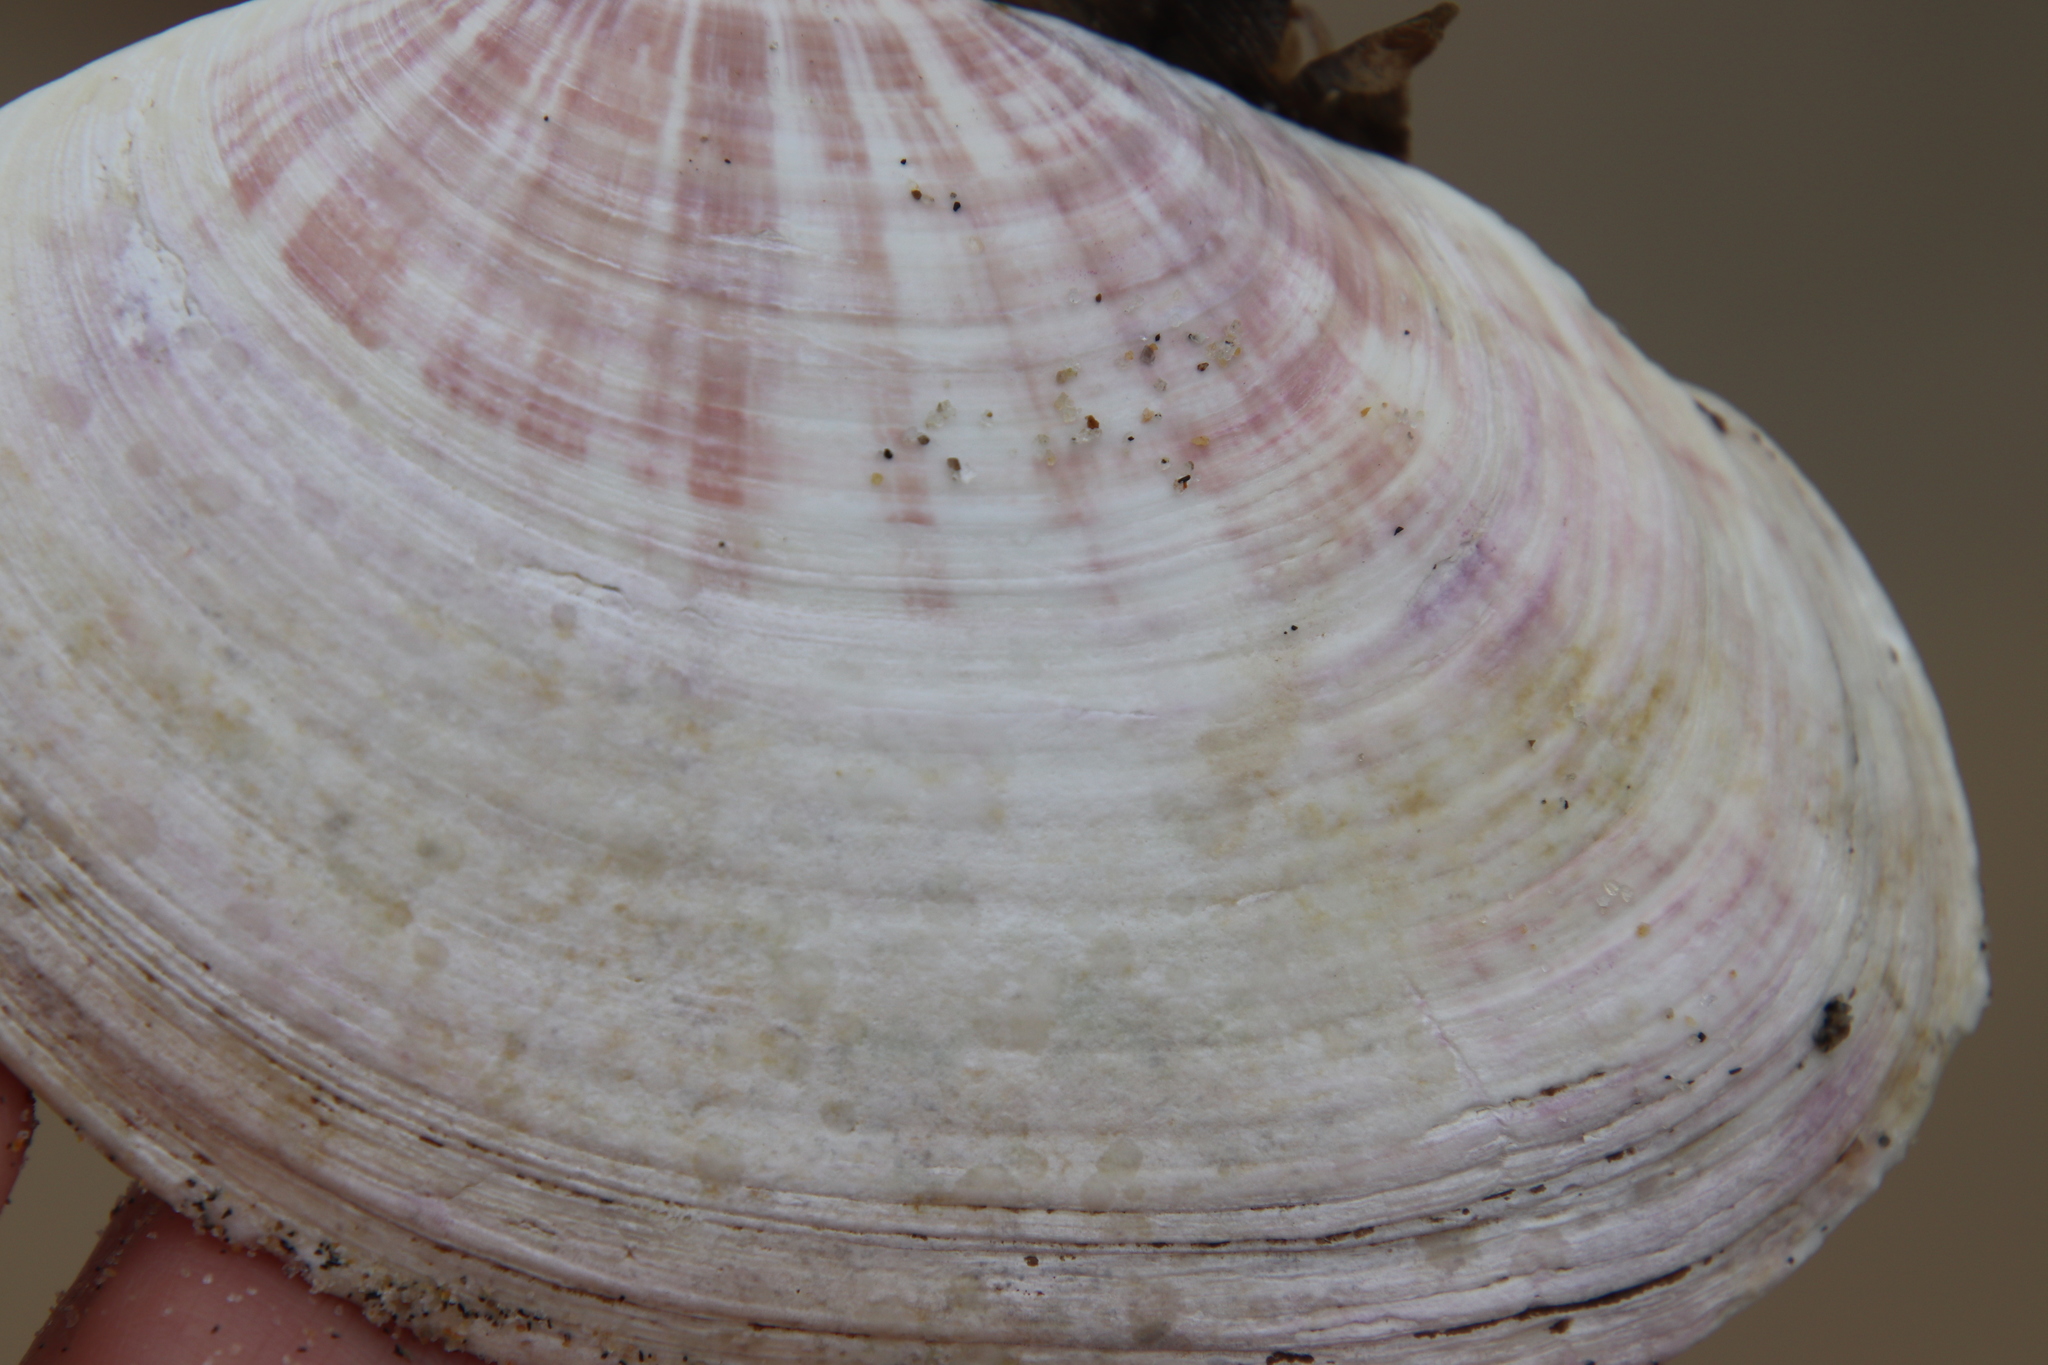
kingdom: Animalia
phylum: Mollusca
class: Bivalvia
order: Cardiida
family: Psammobiidae
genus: Gari
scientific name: Gari californica
